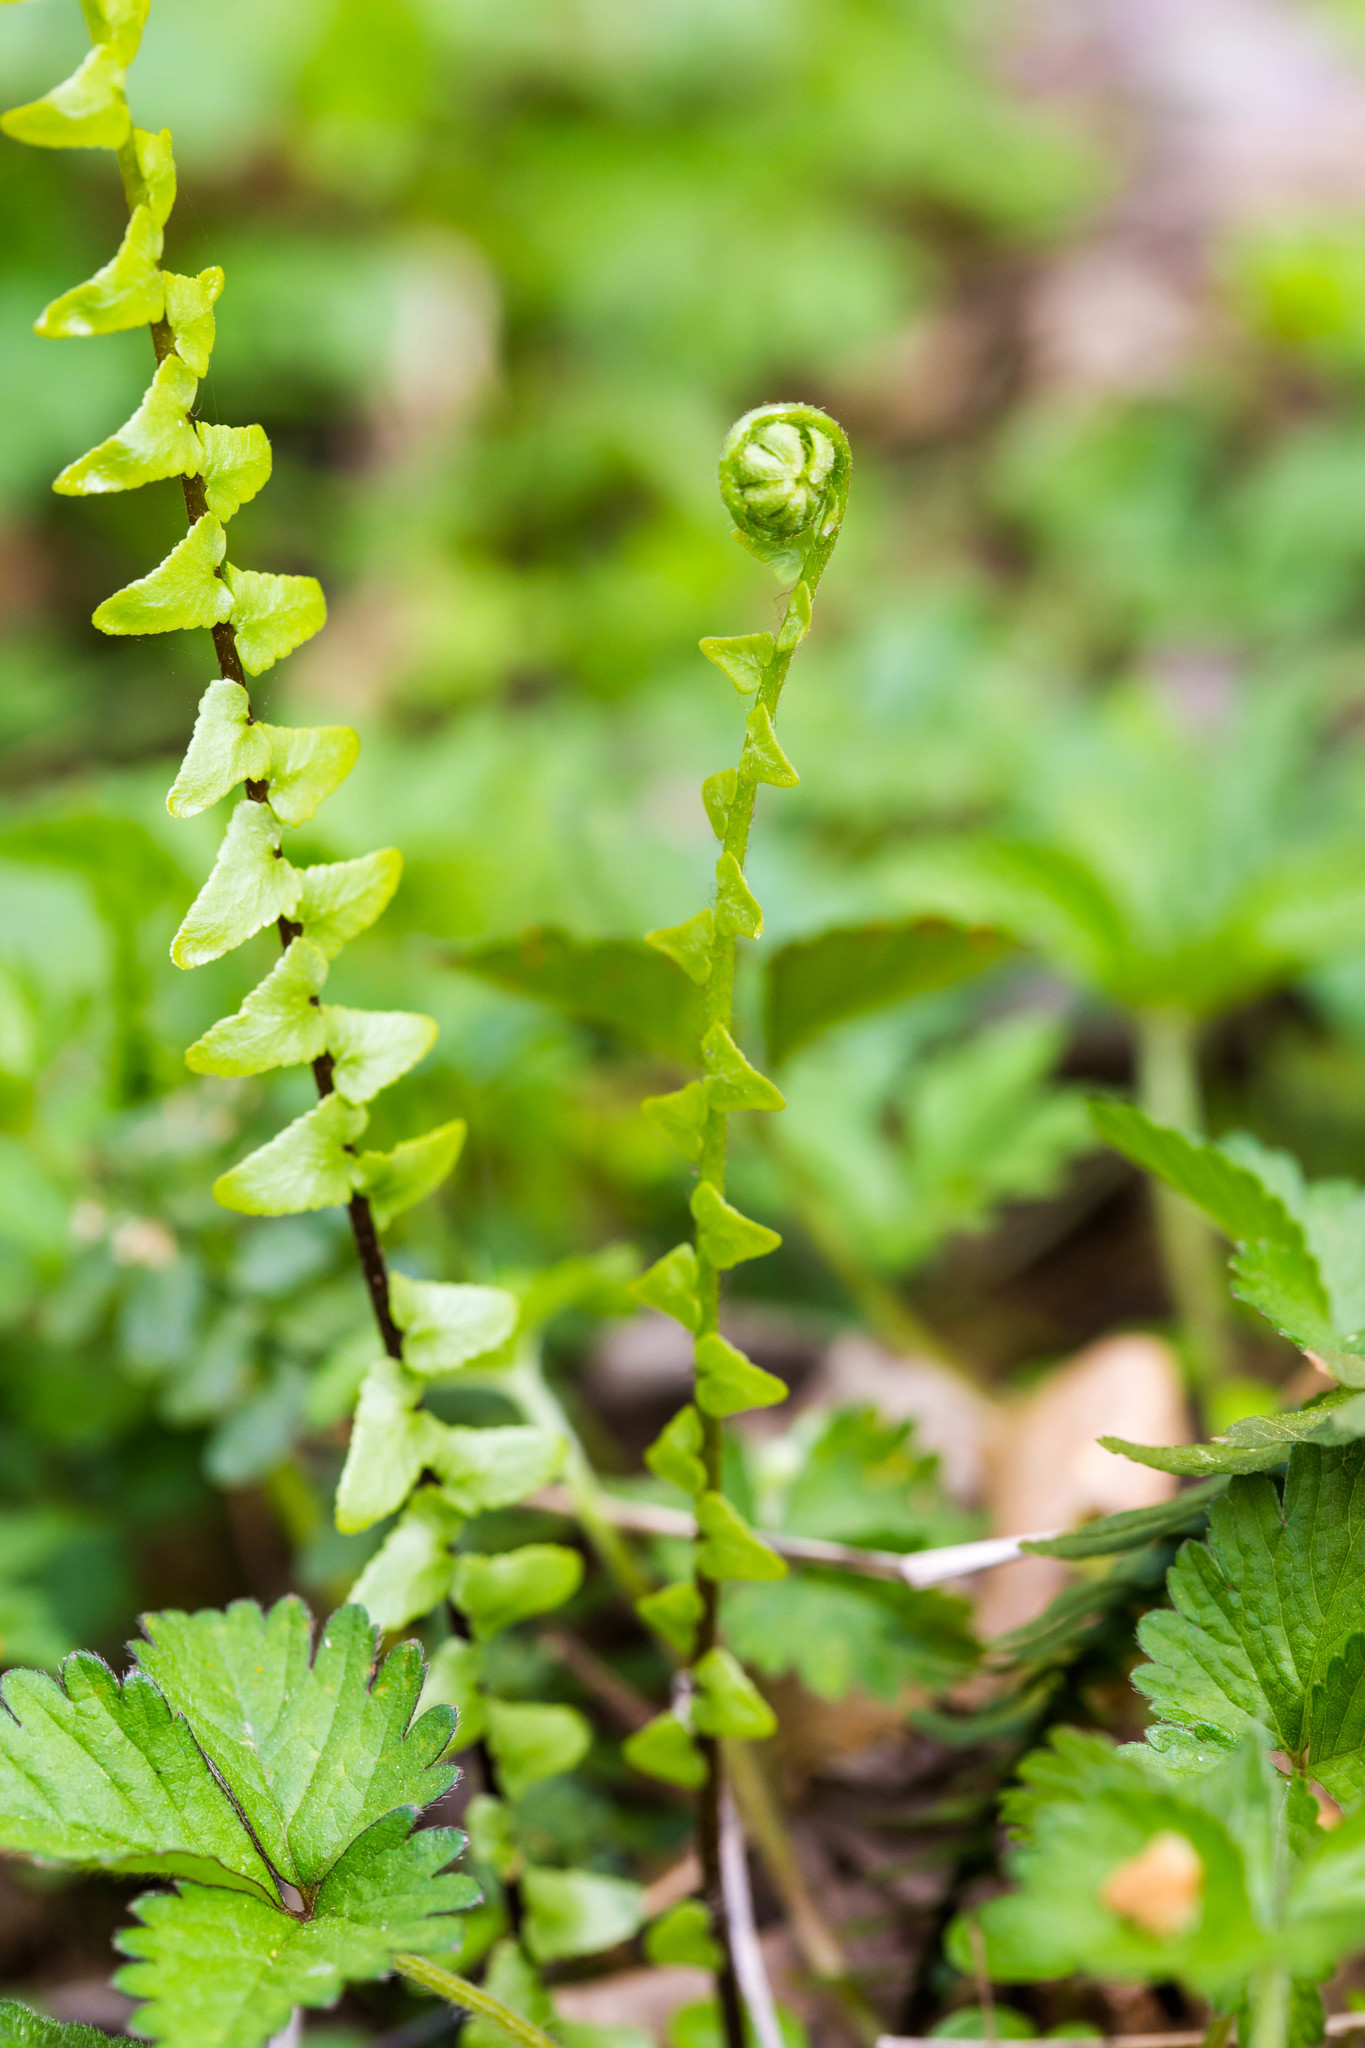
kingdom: Plantae
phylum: Tracheophyta
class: Polypodiopsida
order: Polypodiales
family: Aspleniaceae
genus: Asplenium
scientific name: Asplenium platyneuron
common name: Ebony spleenwort
